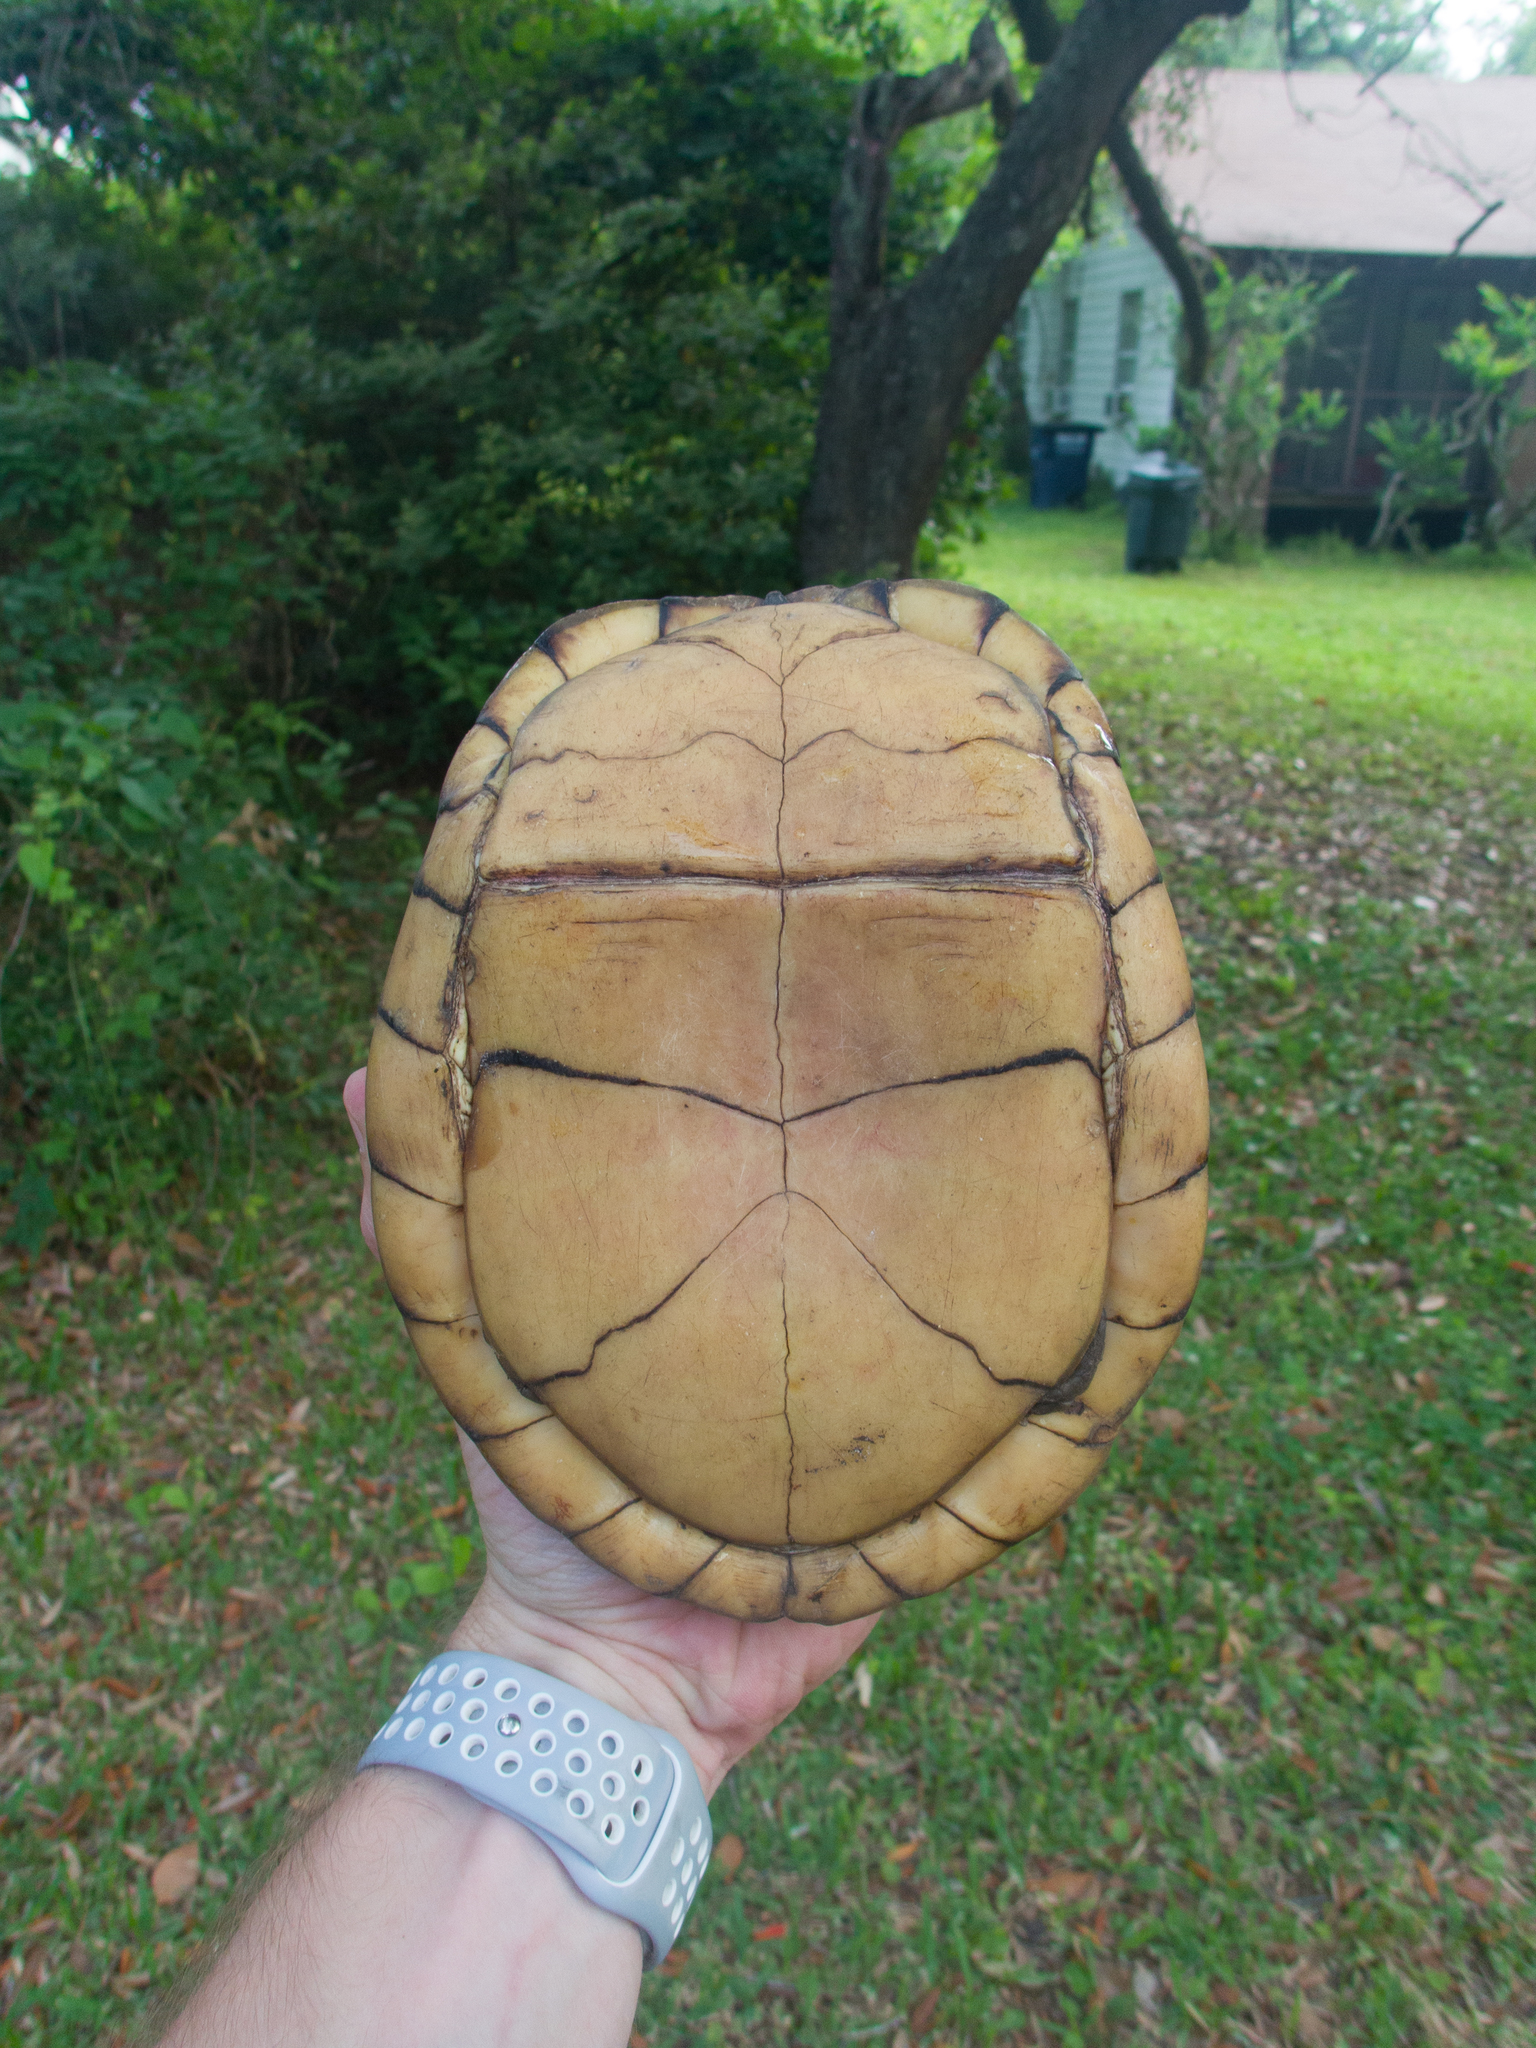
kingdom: Animalia
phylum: Chordata
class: Testudines
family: Emydidae
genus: Terrapene
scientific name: Terrapene carolina
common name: Common box turtle
